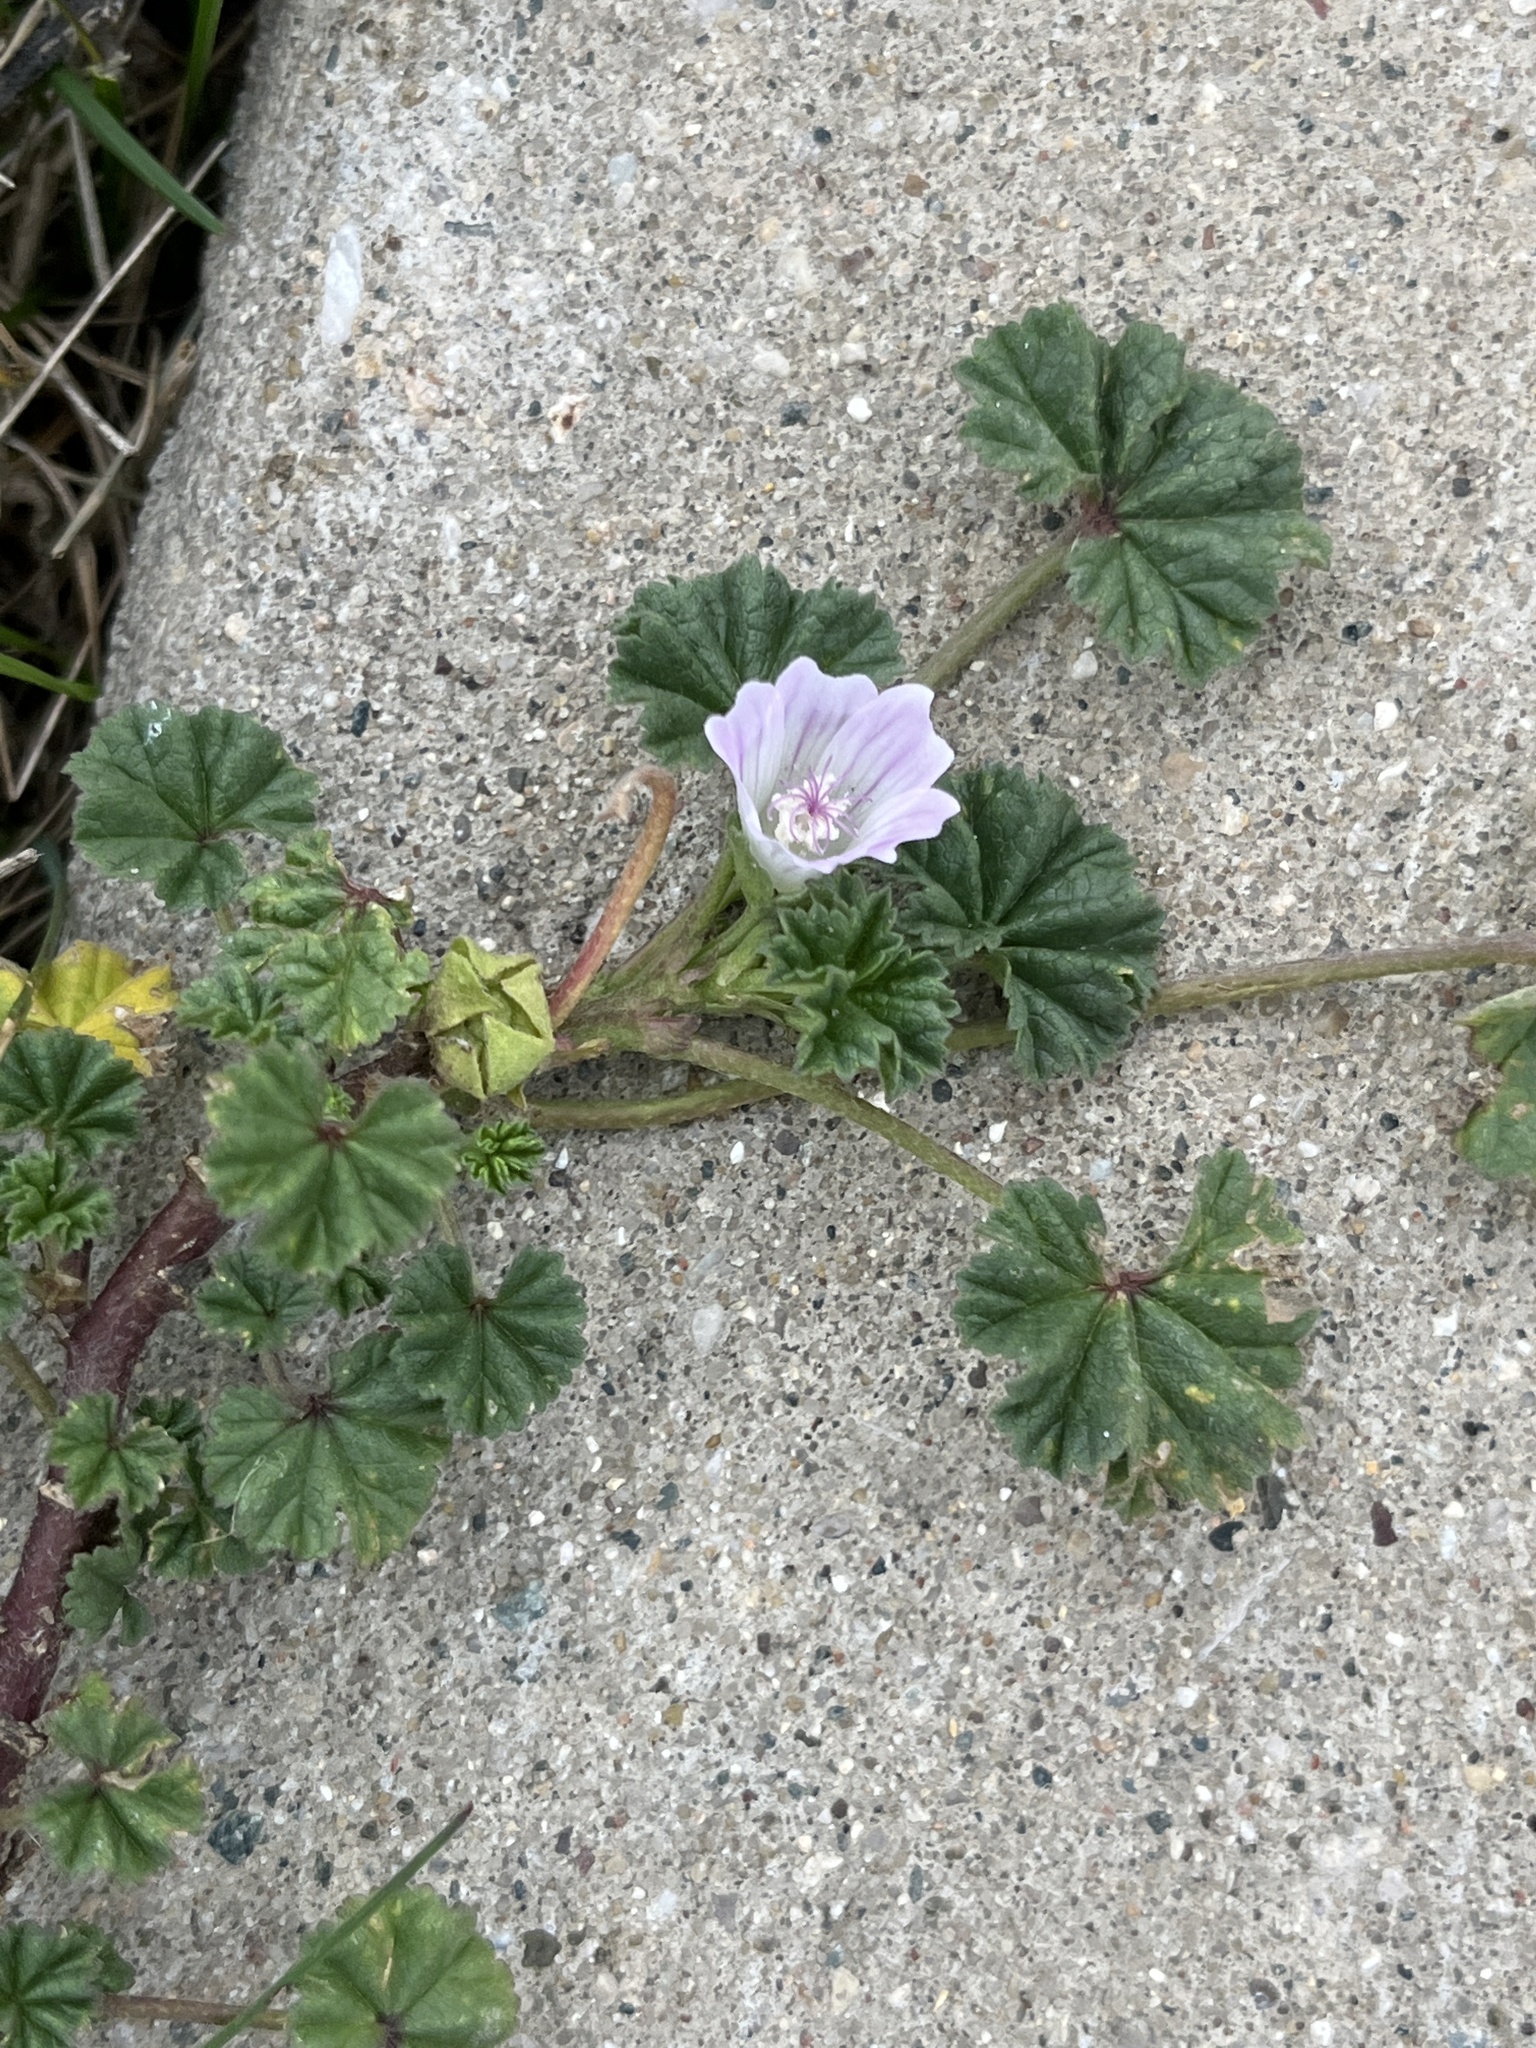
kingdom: Plantae
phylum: Tracheophyta
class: Magnoliopsida
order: Malvales
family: Malvaceae
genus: Malva
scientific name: Malva neglecta
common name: Common mallow
